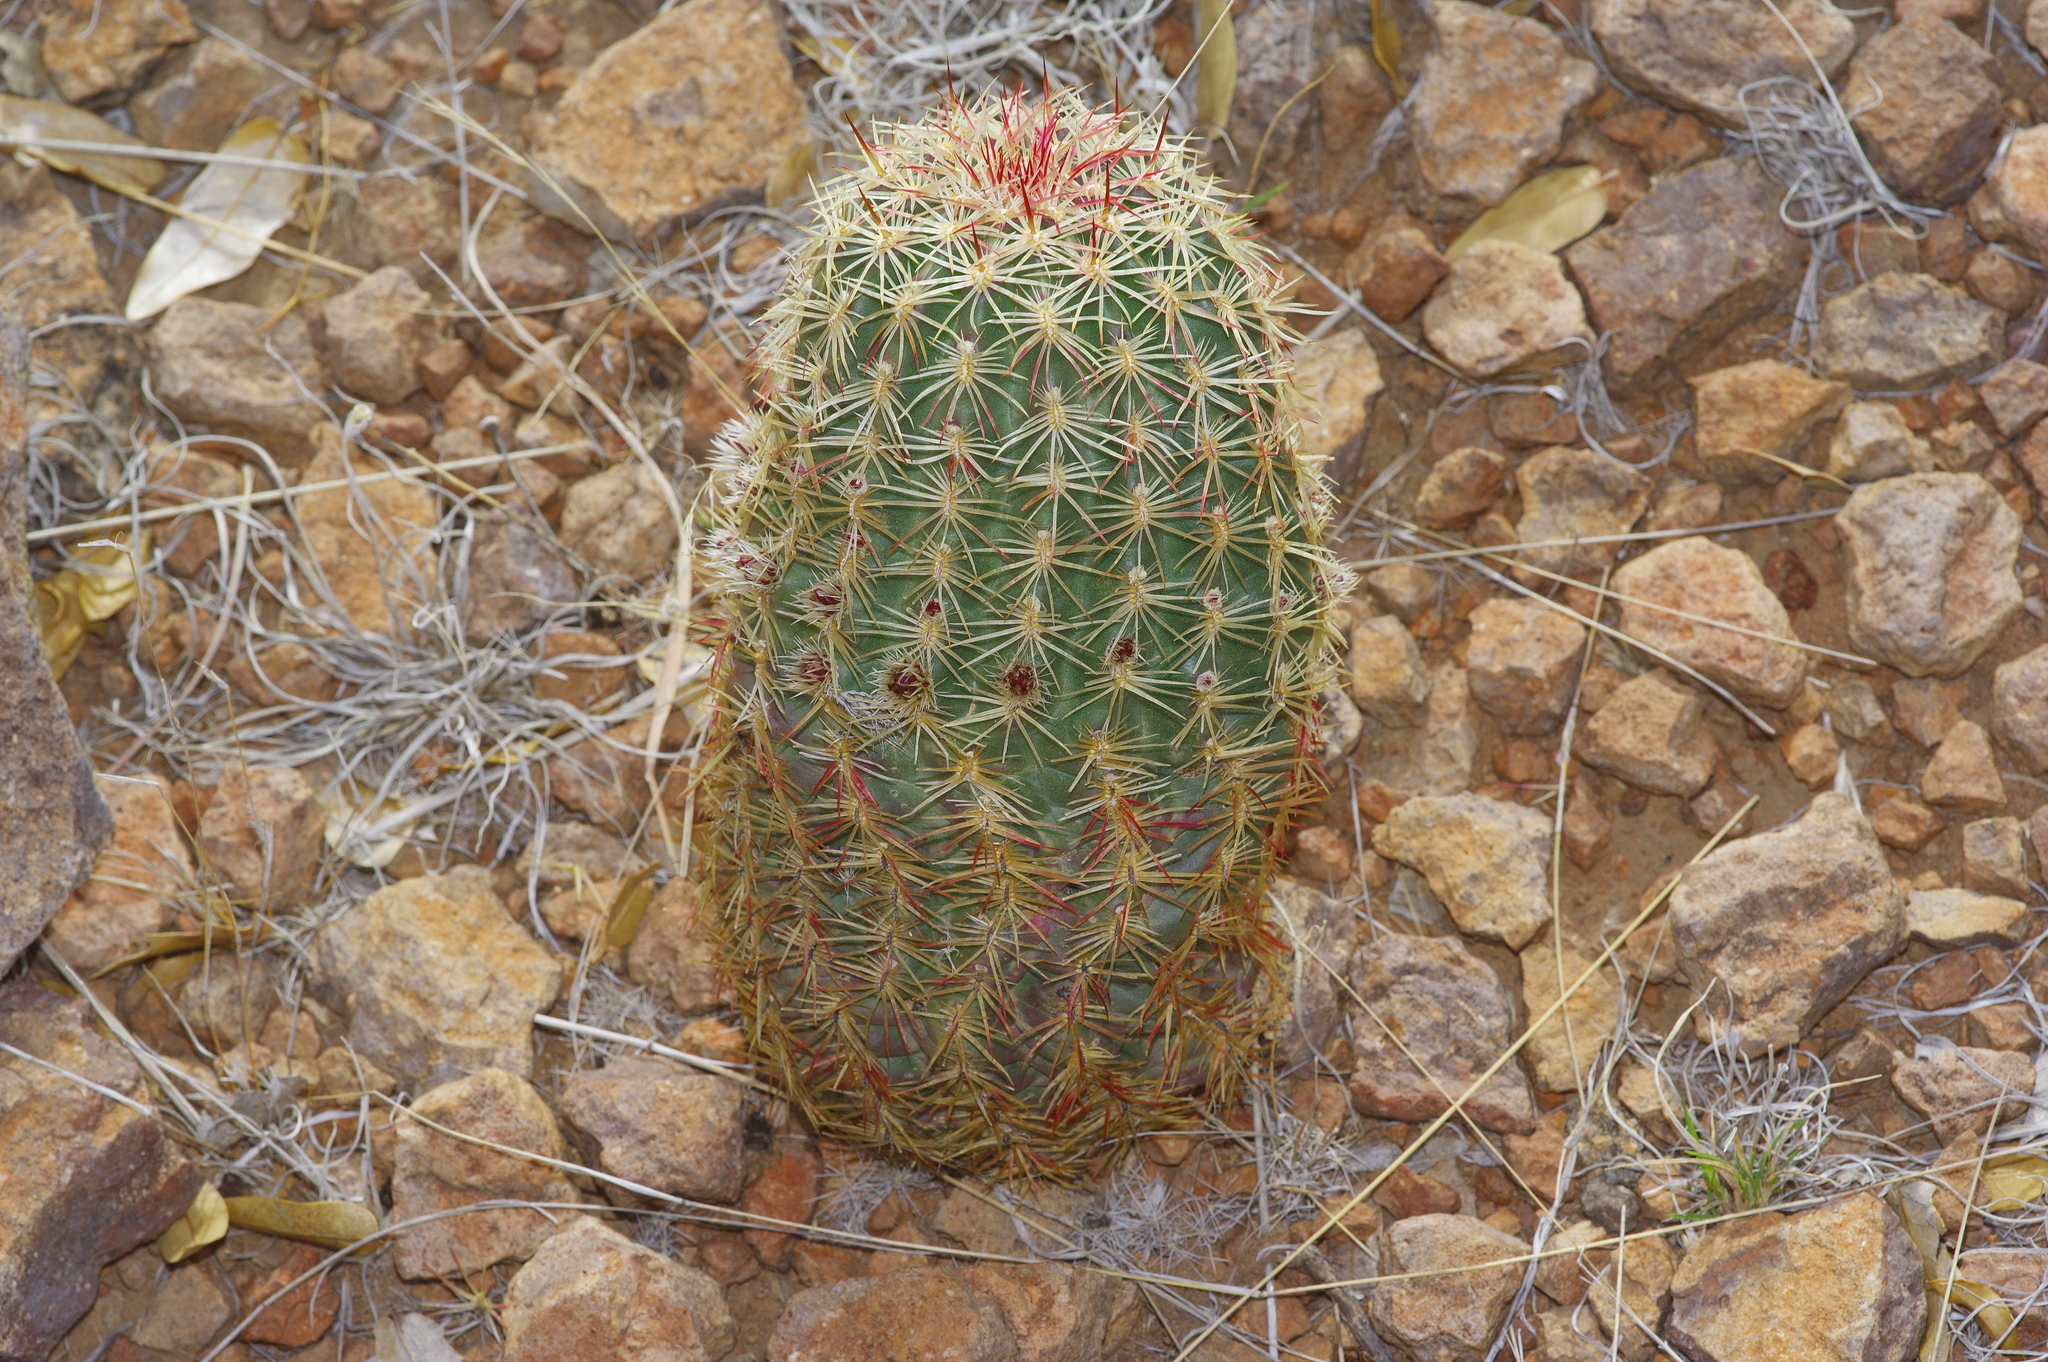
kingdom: Plantae
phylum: Tracheophyta
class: Magnoliopsida
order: Caryophyllales
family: Cactaceae
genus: Echinocereus
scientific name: Echinocereus viridiflorus
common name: Nylon hedgehog cactus
